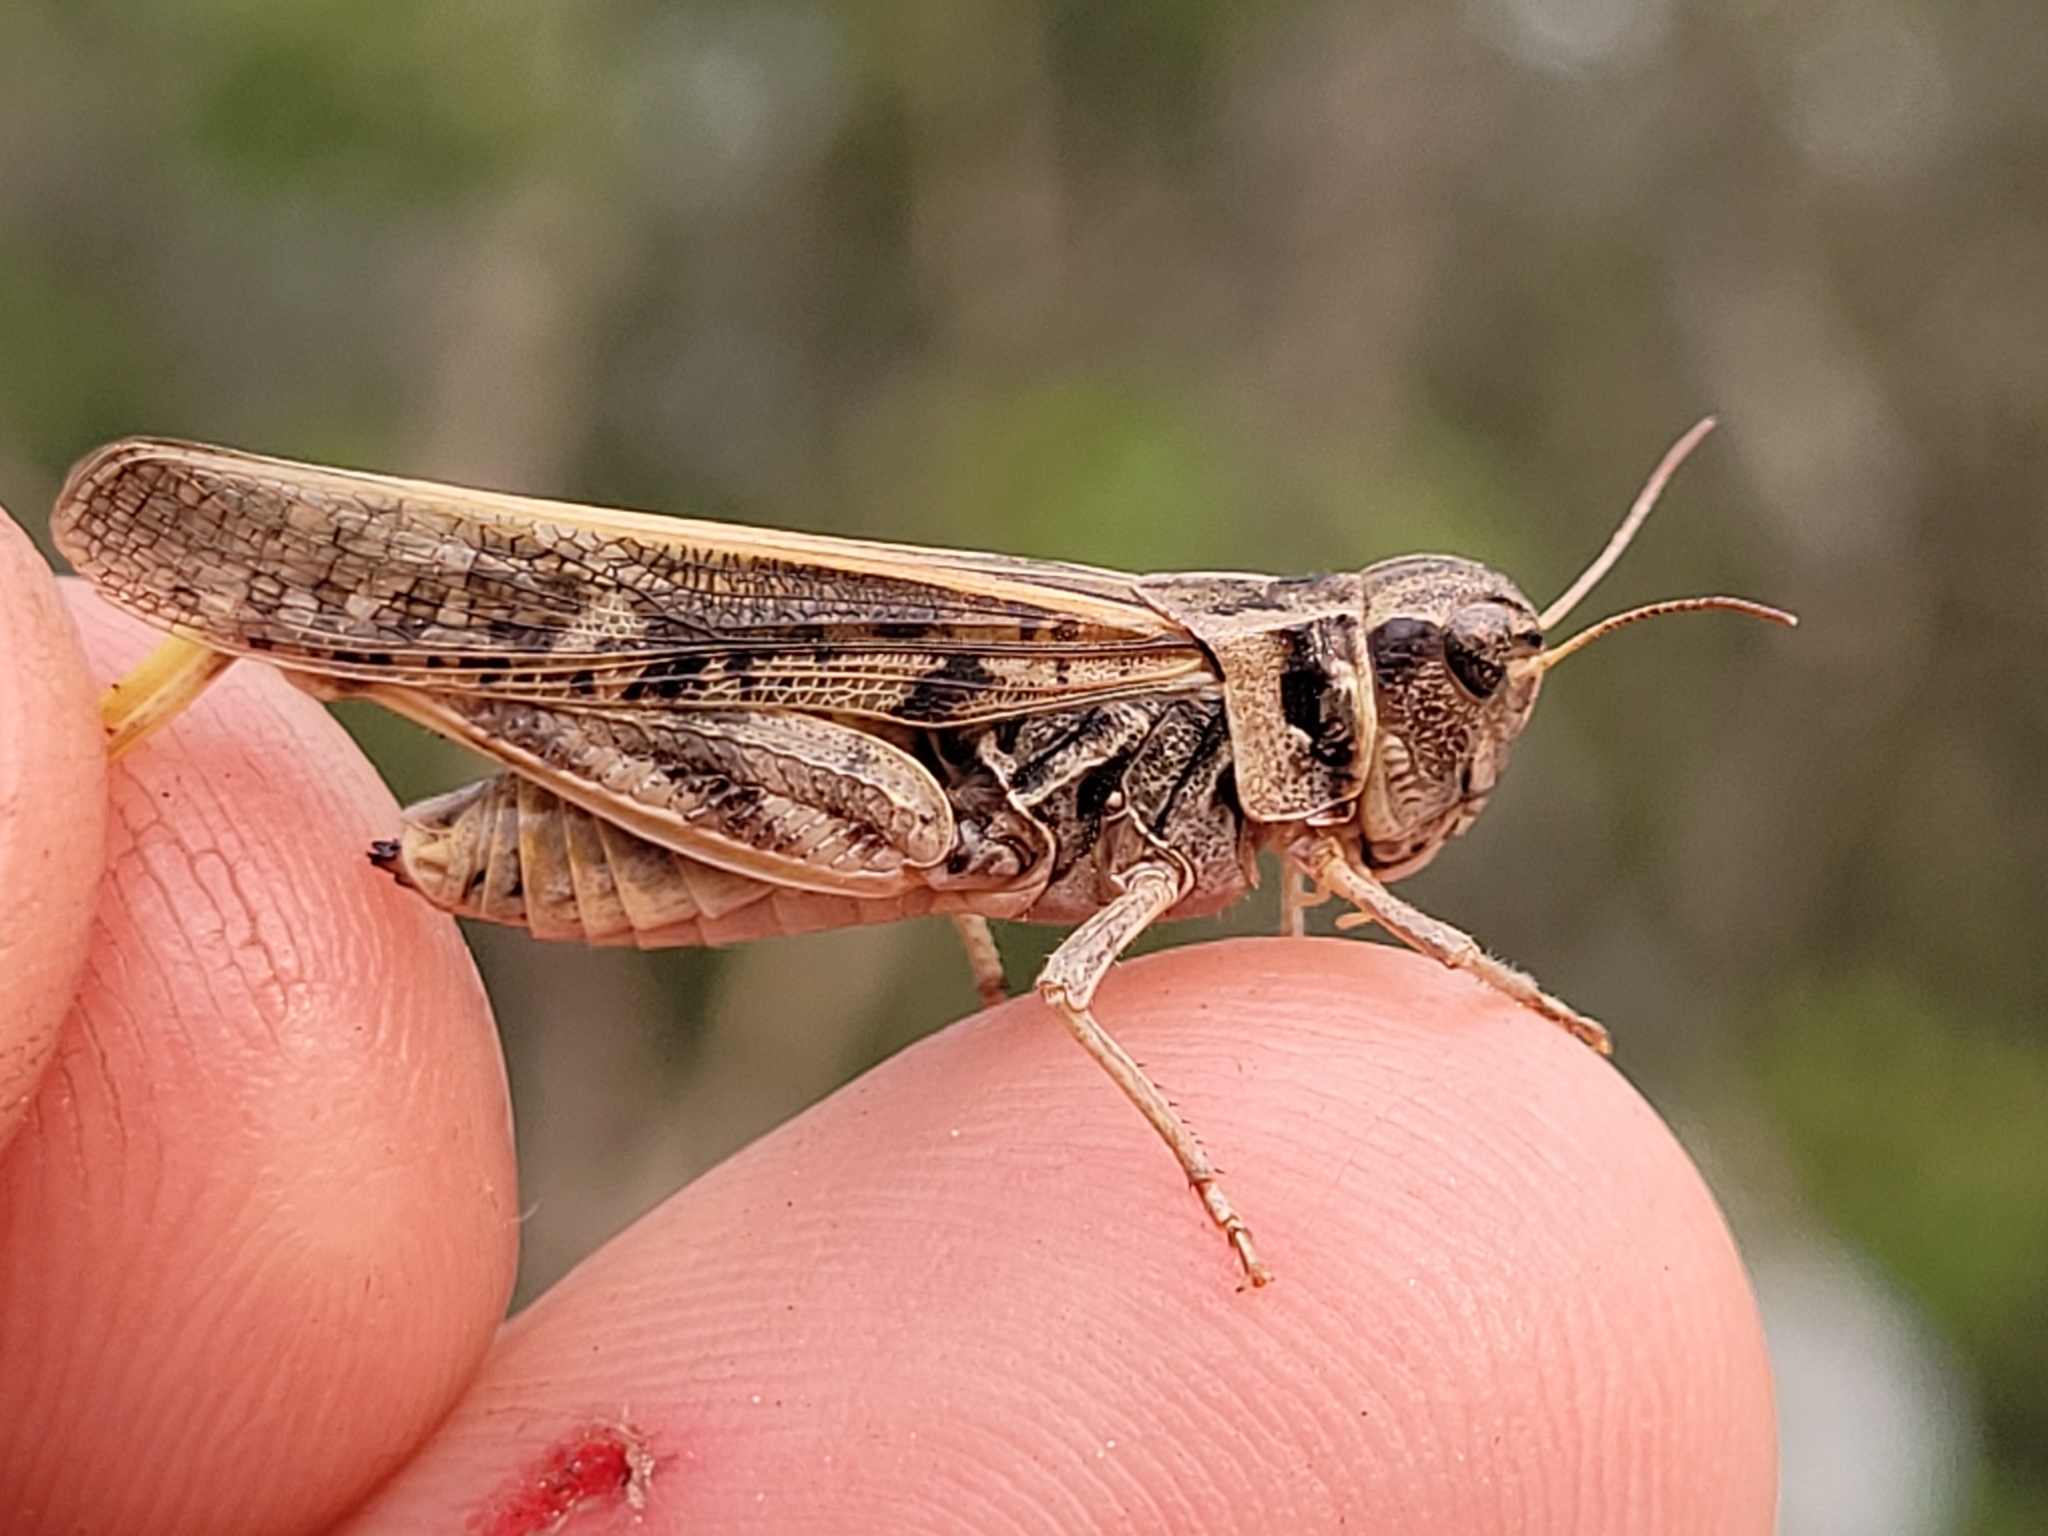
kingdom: Animalia
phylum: Arthropoda
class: Insecta
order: Orthoptera
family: Acrididae
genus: Camnula
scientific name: Camnula pellucida
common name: Clear-winged grasshopper
